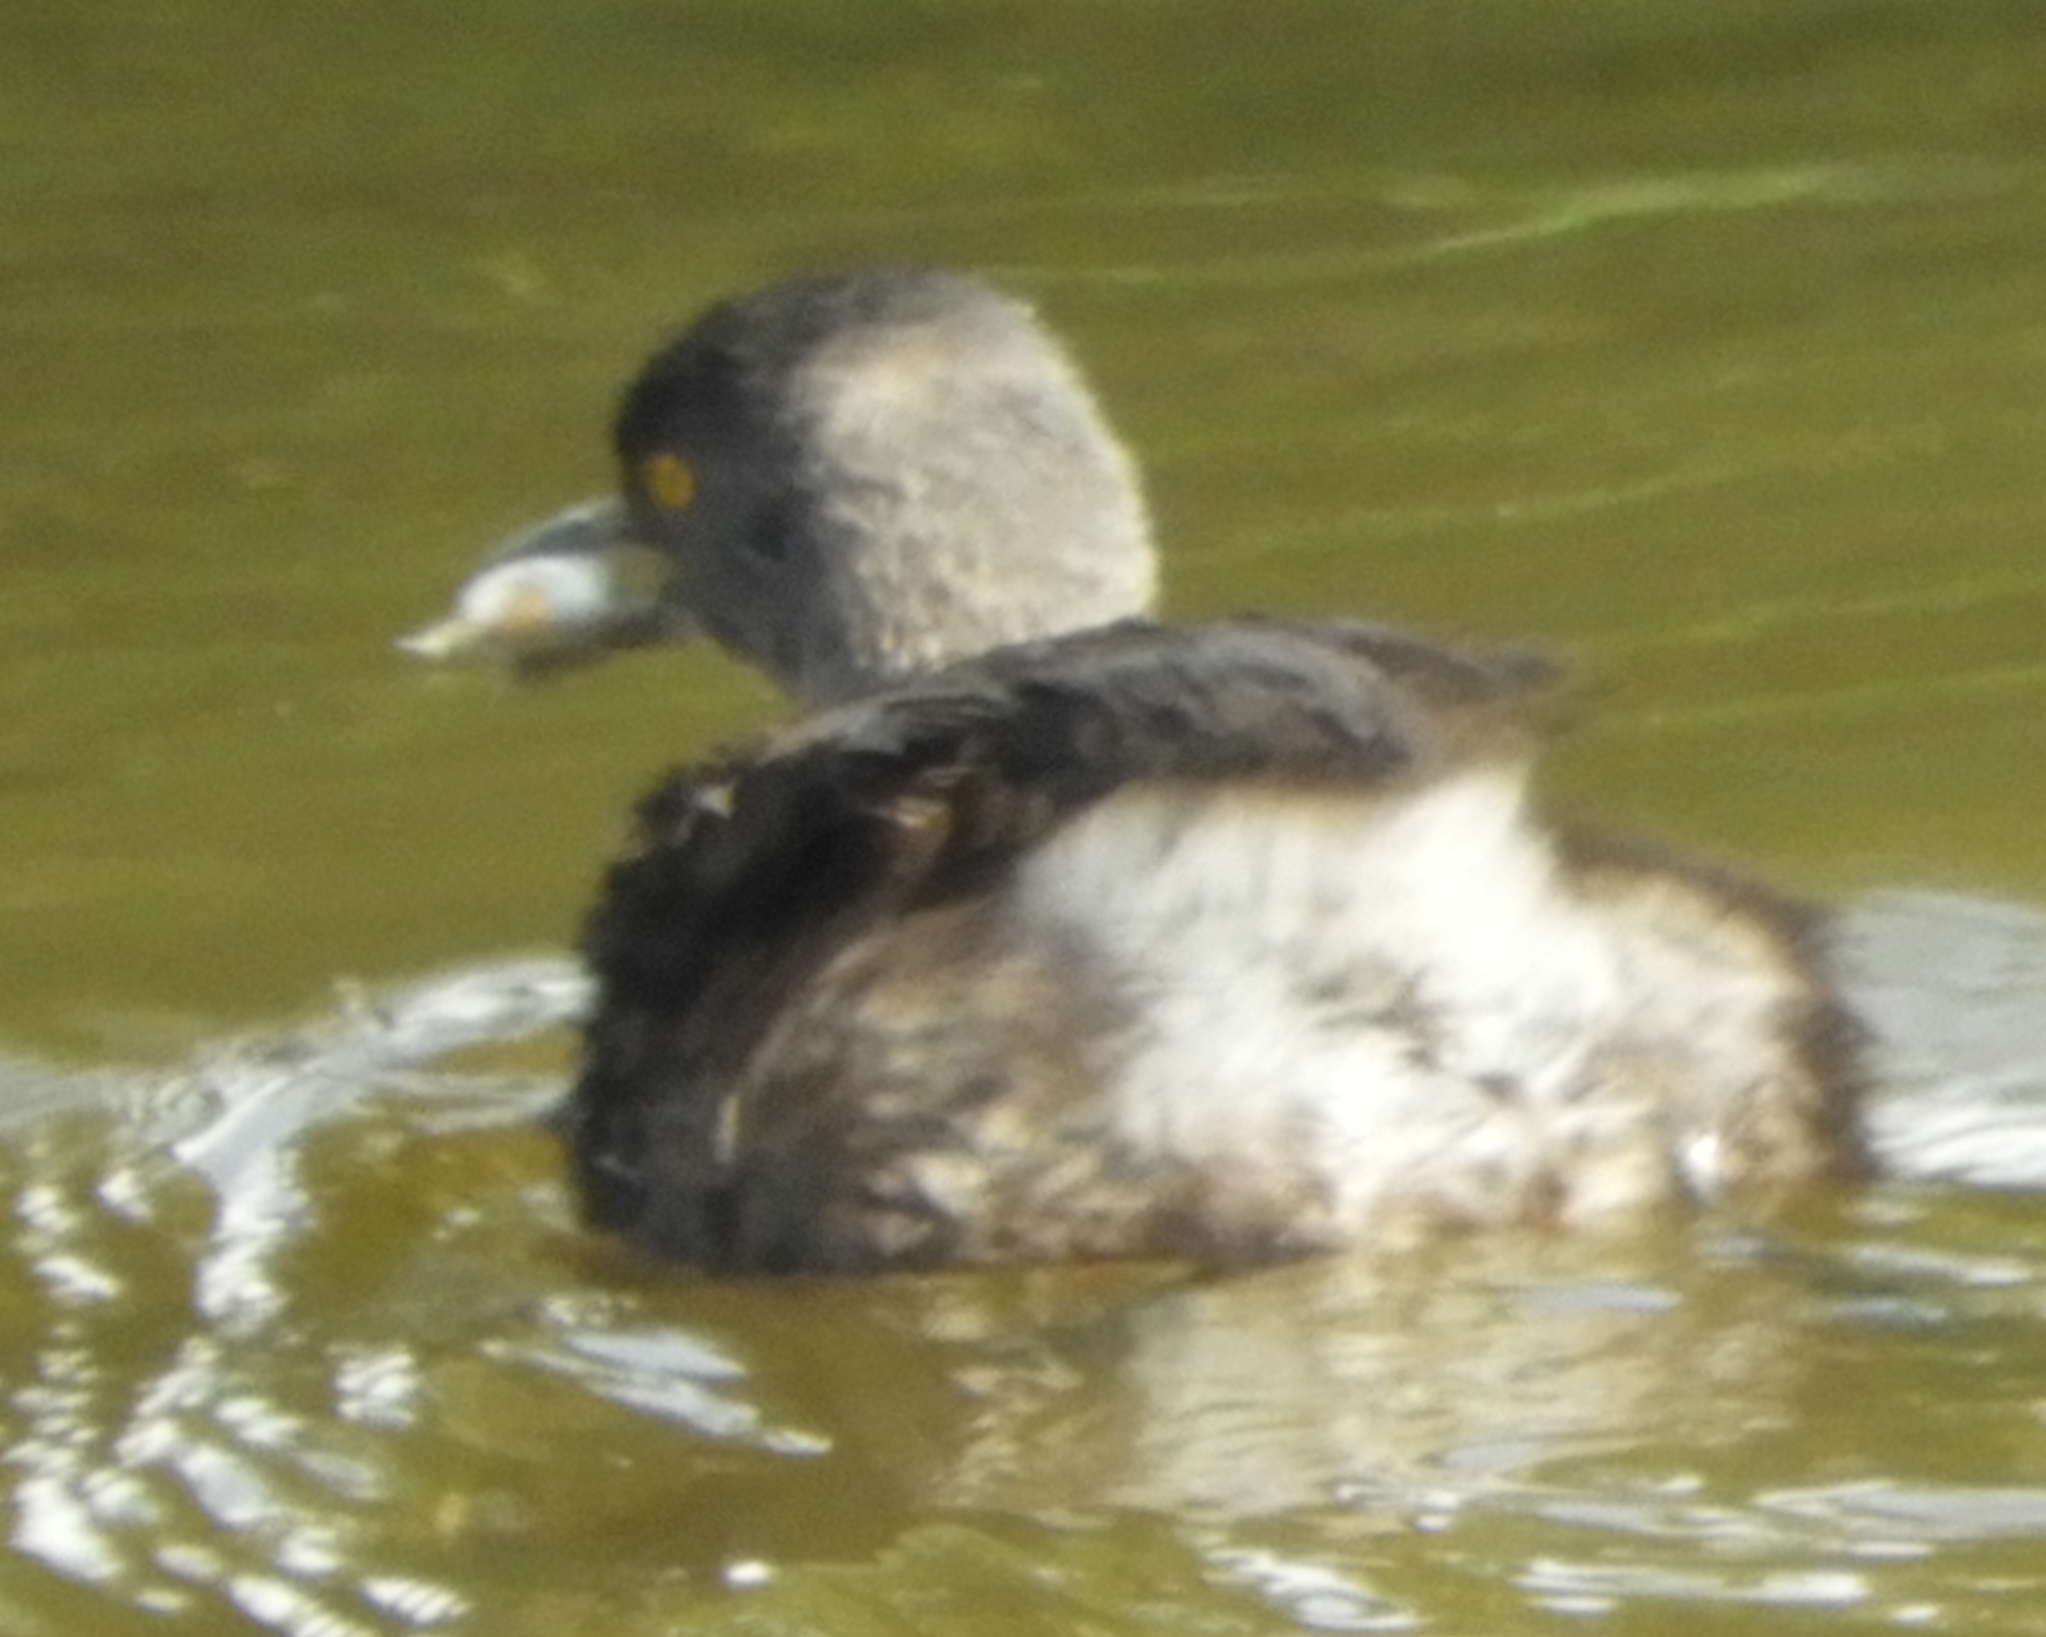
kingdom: Animalia
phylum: Chordata
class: Aves
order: Podicipediformes
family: Podicipedidae
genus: Tachybaptus
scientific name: Tachybaptus dominicus
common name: Least grebe
